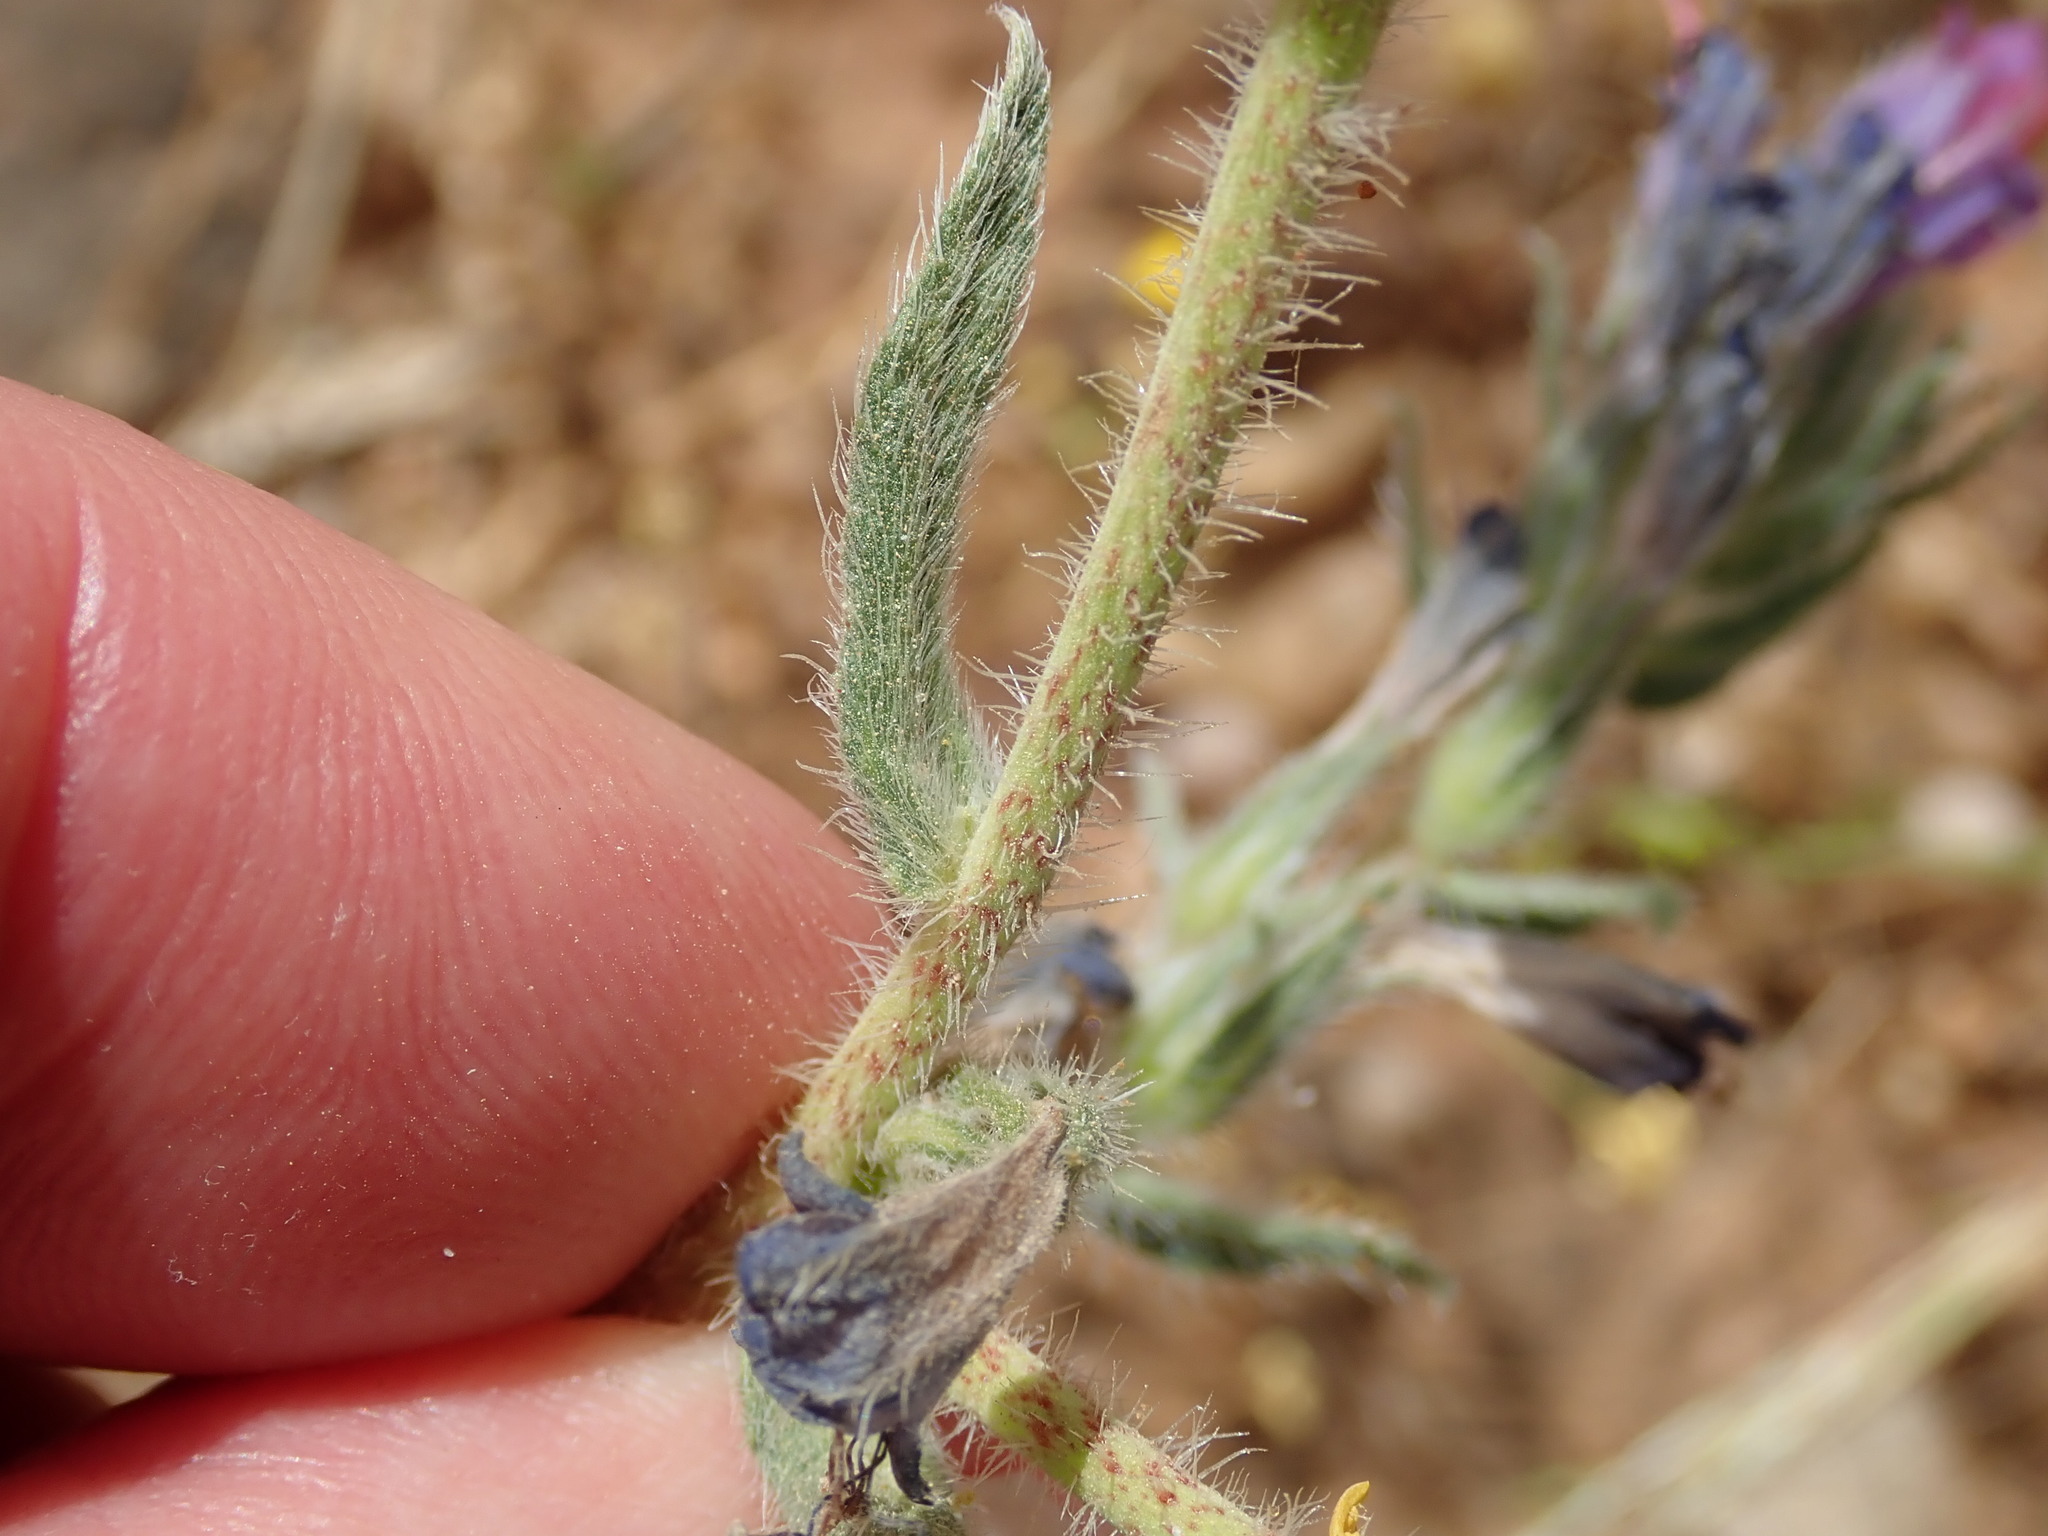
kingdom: Plantae
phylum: Tracheophyta
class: Magnoliopsida
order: Boraginales
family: Boraginaceae
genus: Echium
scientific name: Echium angustifolium
